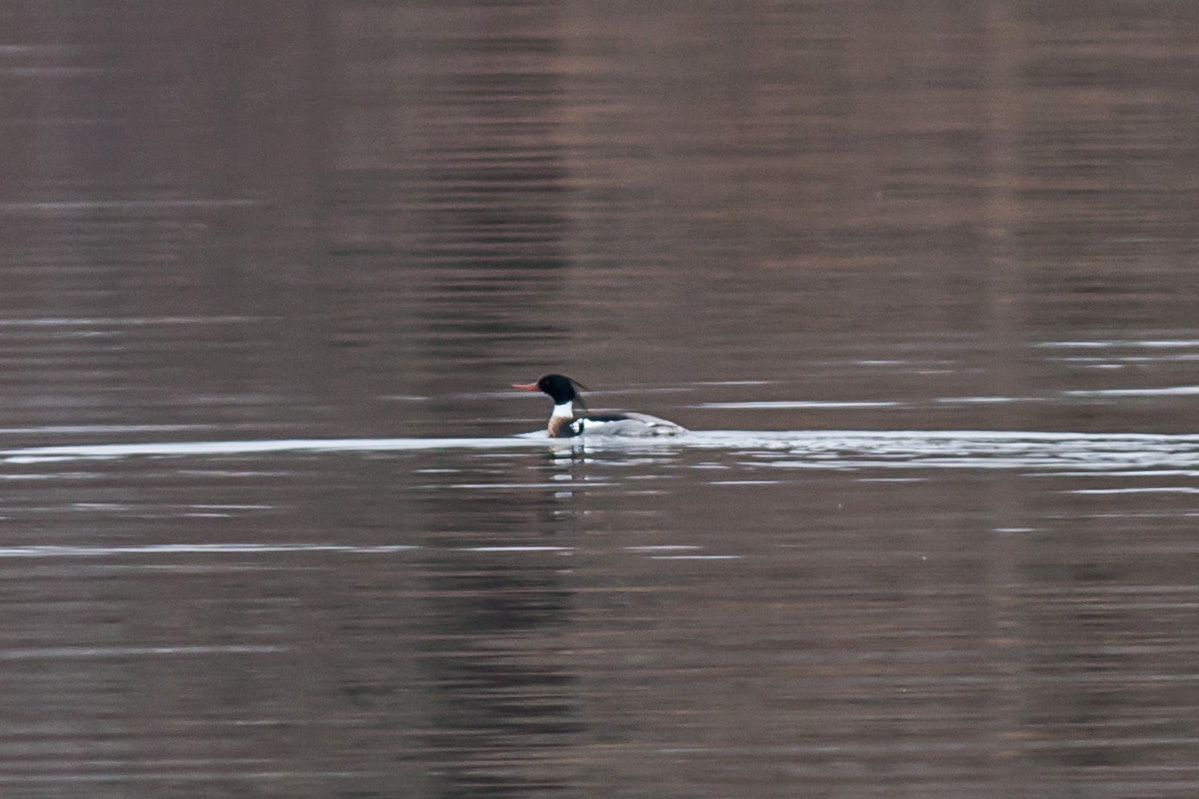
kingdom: Animalia
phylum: Chordata
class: Aves
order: Anseriformes
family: Anatidae
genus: Mergus
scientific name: Mergus serrator
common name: Red-breasted merganser
